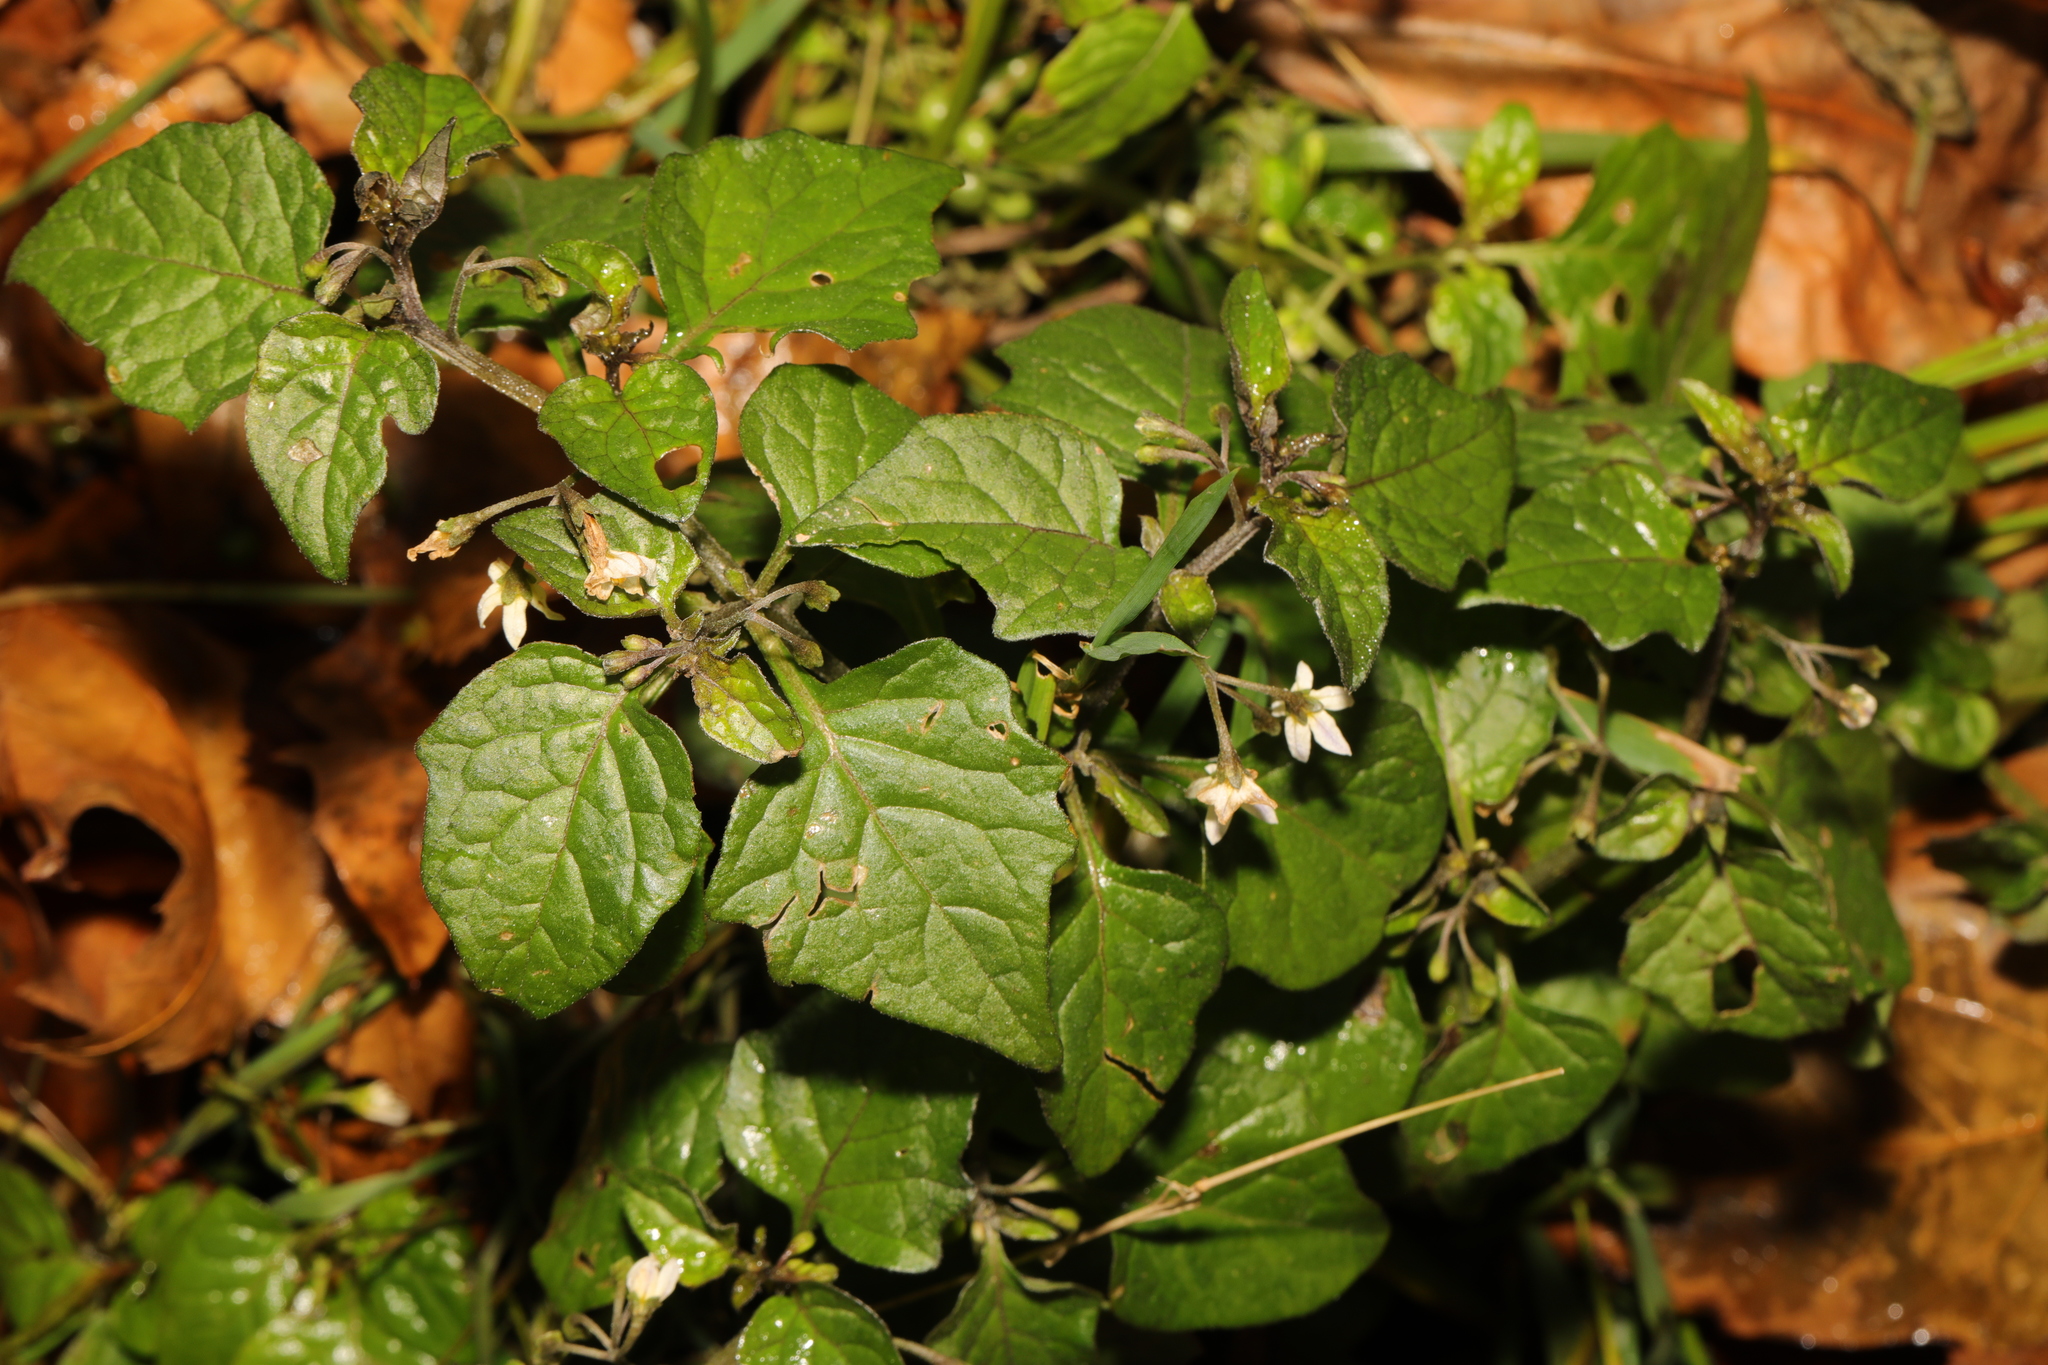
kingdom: Plantae
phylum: Tracheophyta
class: Magnoliopsida
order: Solanales
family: Solanaceae
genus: Solanum
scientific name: Solanum nigrum
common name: Black nightshade
